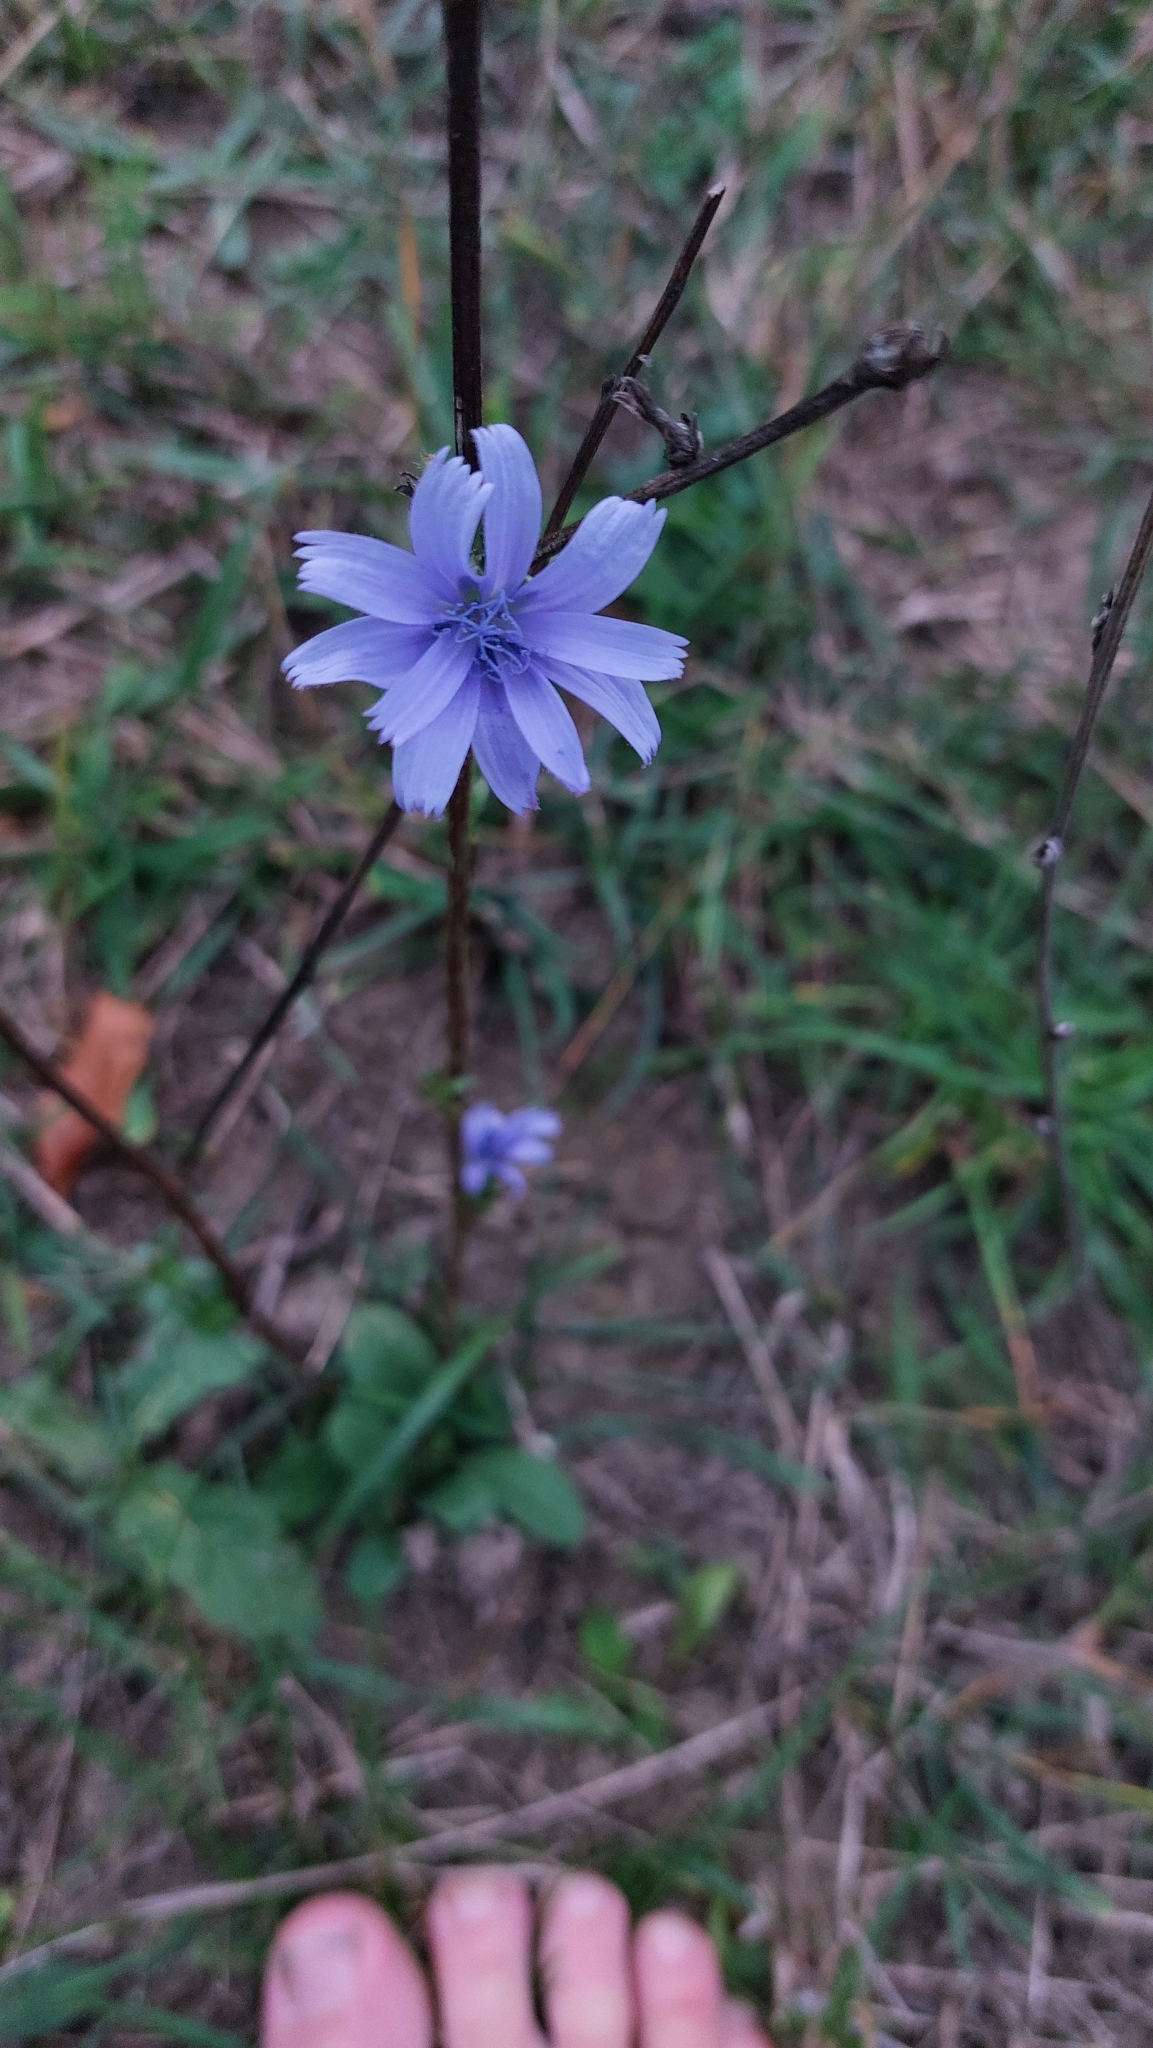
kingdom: Plantae
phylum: Tracheophyta
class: Magnoliopsida
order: Asterales
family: Asteraceae
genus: Cichorium
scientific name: Cichorium intybus
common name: Chicory
